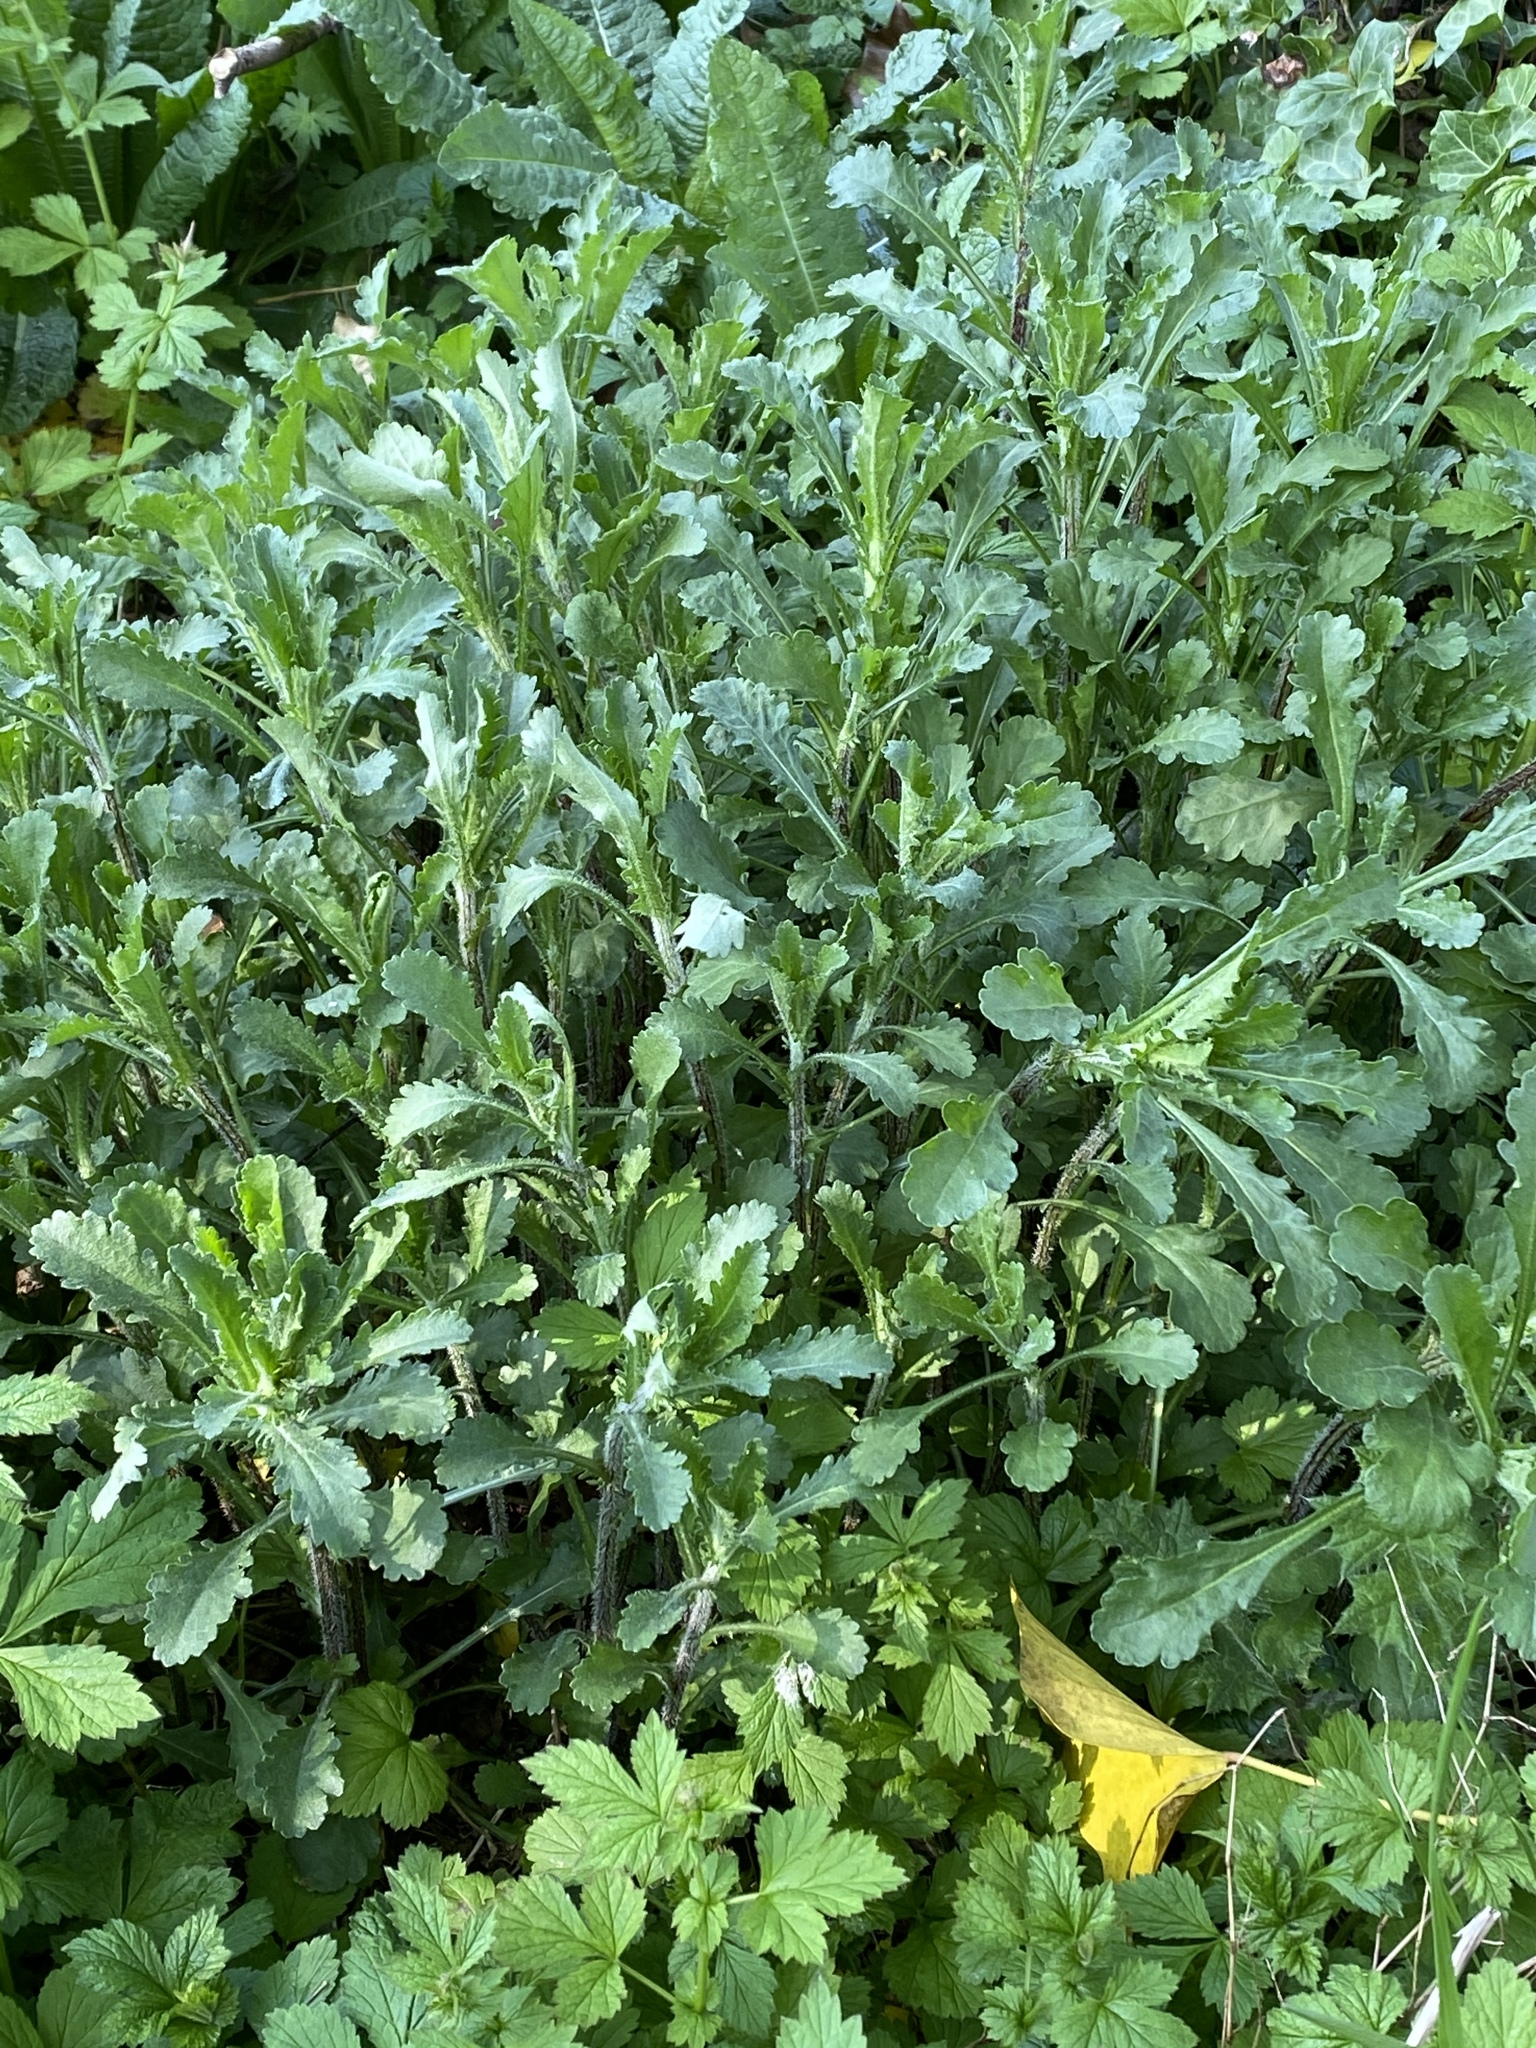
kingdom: Plantae
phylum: Tracheophyta
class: Magnoliopsida
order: Asterales
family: Asteraceae
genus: Leucanthemum
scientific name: Leucanthemum vulgare
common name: Oxeye daisy
